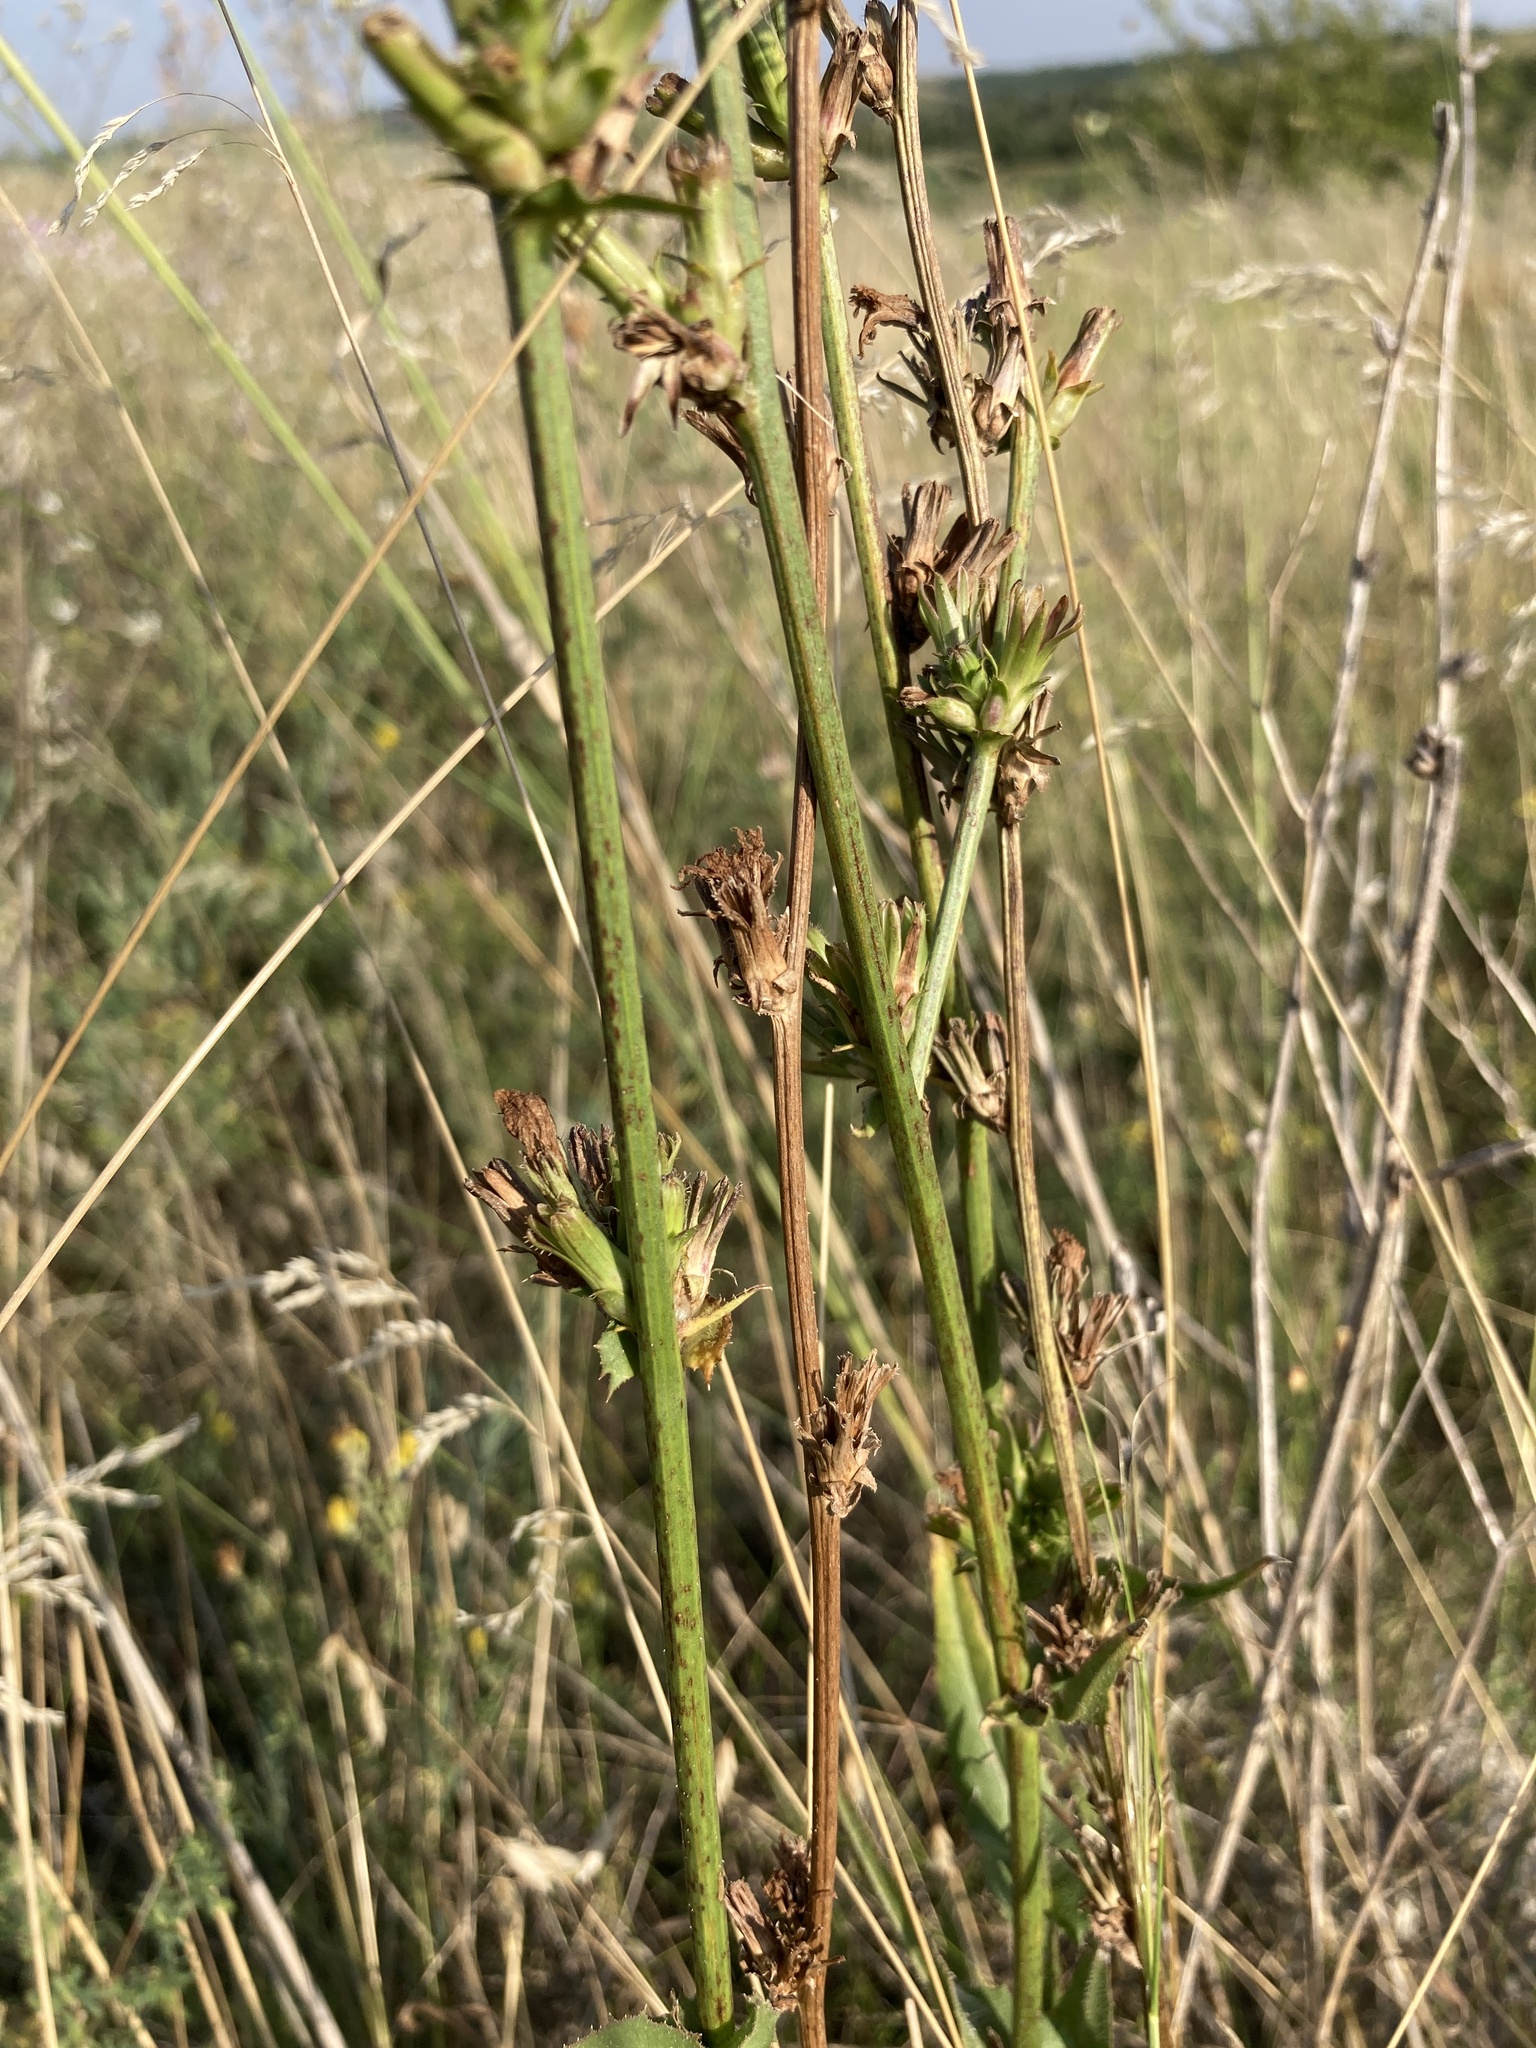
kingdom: Plantae
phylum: Tracheophyta
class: Magnoliopsida
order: Asterales
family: Asteraceae
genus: Cichorium
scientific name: Cichorium intybus
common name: Chicory
